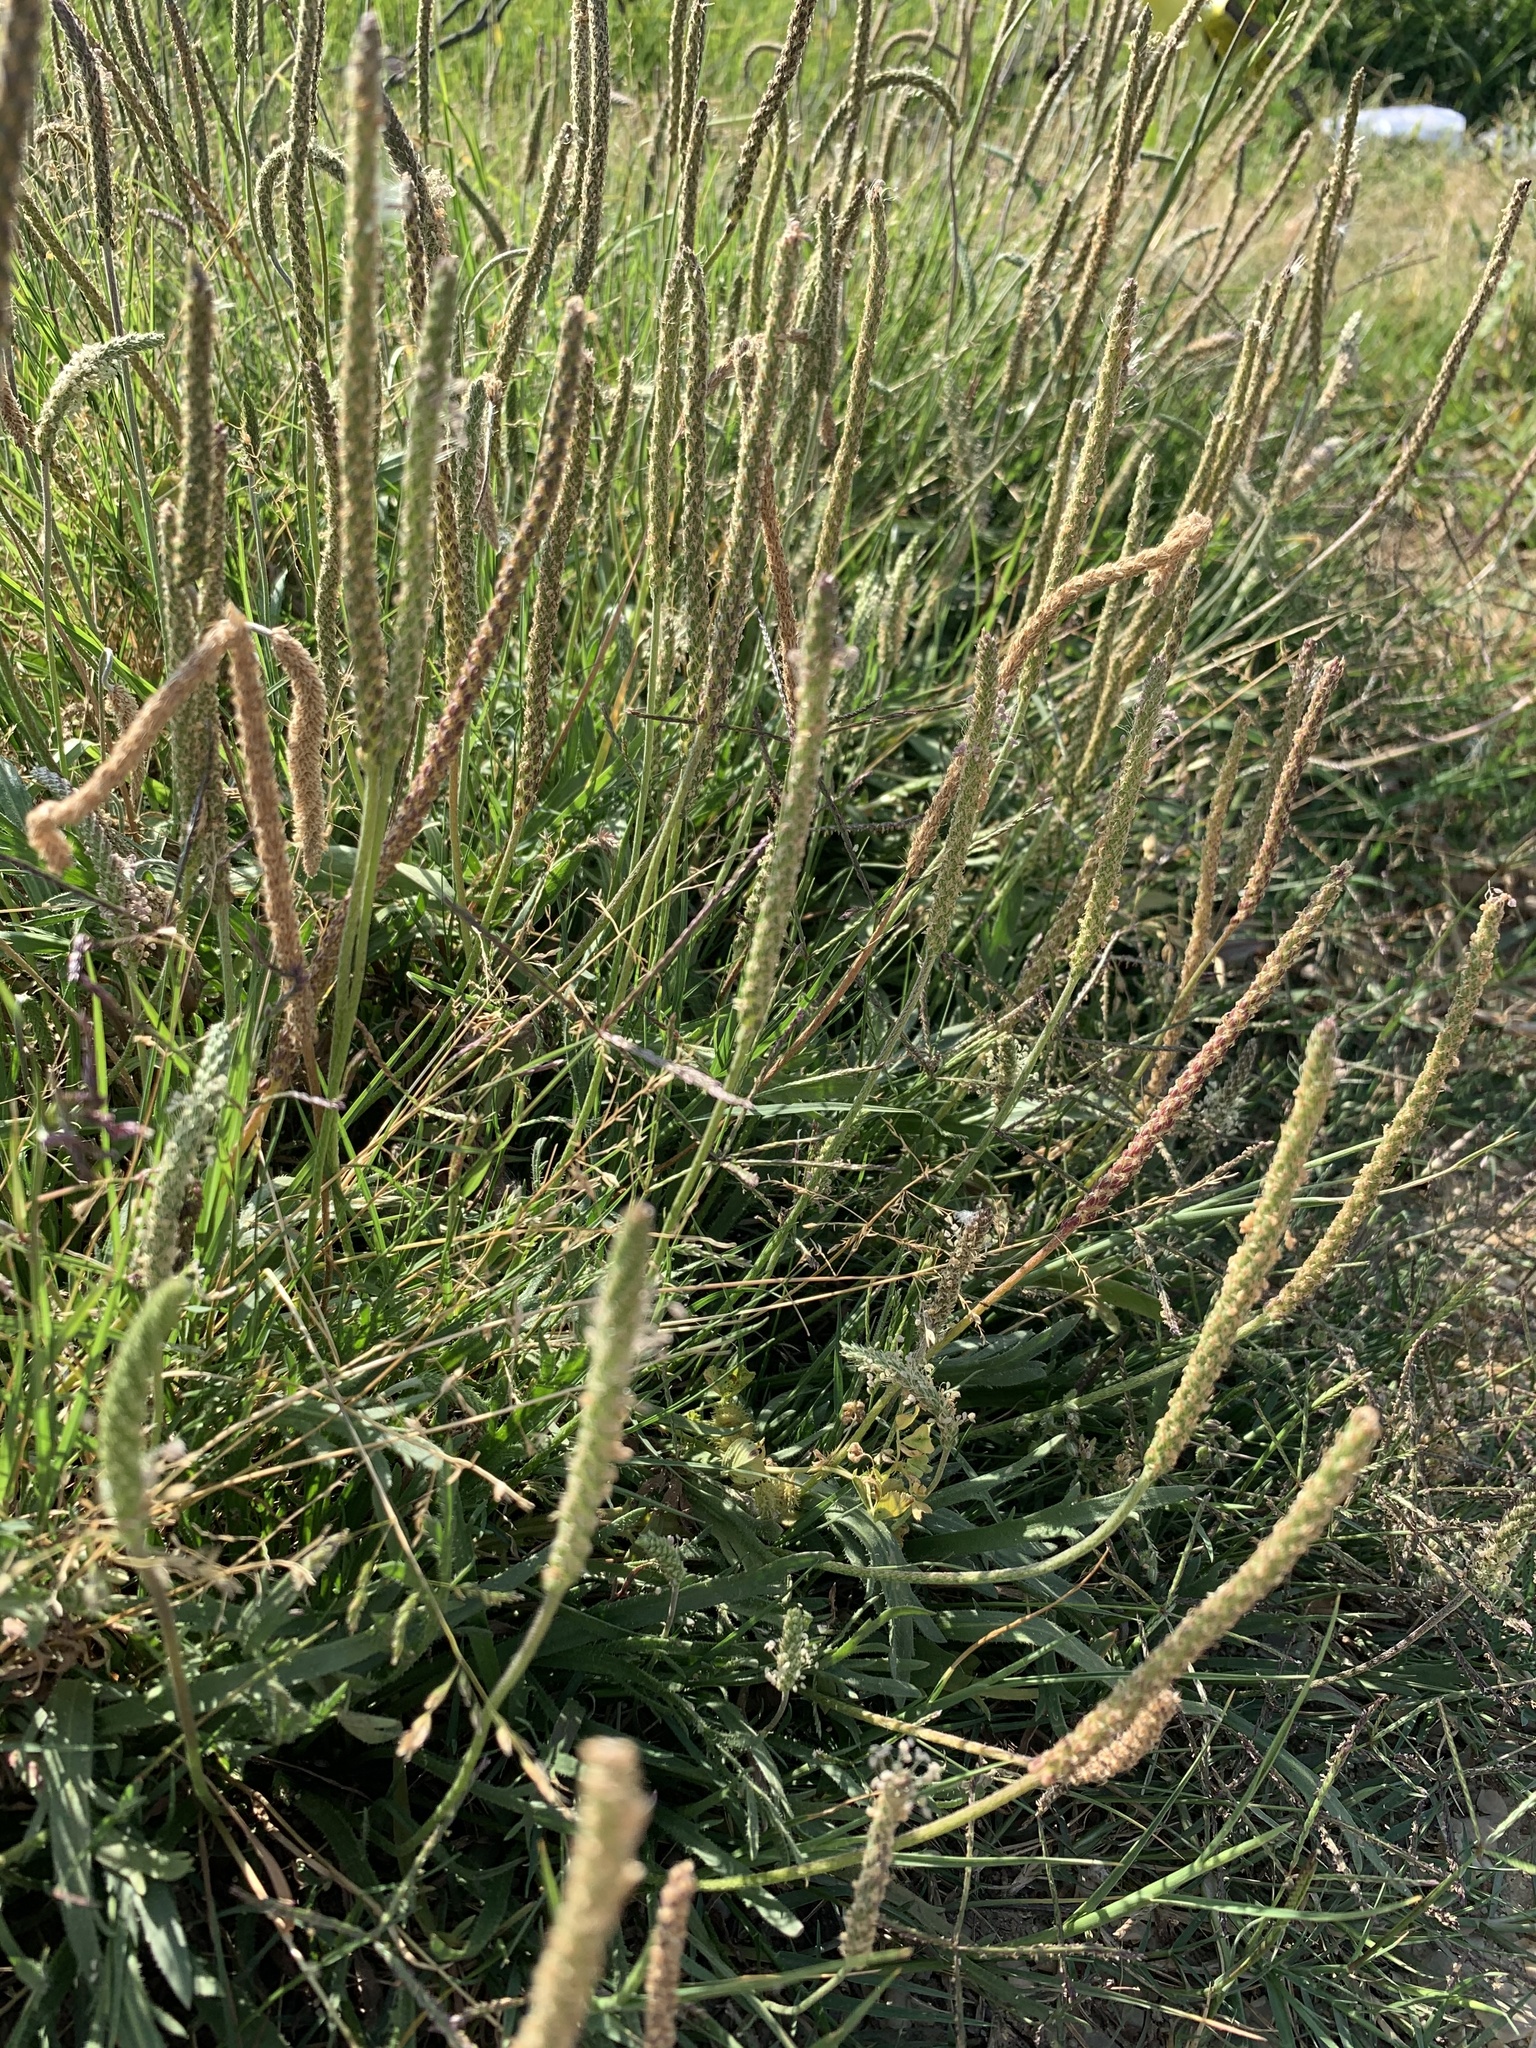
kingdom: Plantae
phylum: Tracheophyta
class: Magnoliopsida
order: Lamiales
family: Plantaginaceae
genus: Plantago
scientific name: Plantago coronopus
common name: Buck's-horn plantain
